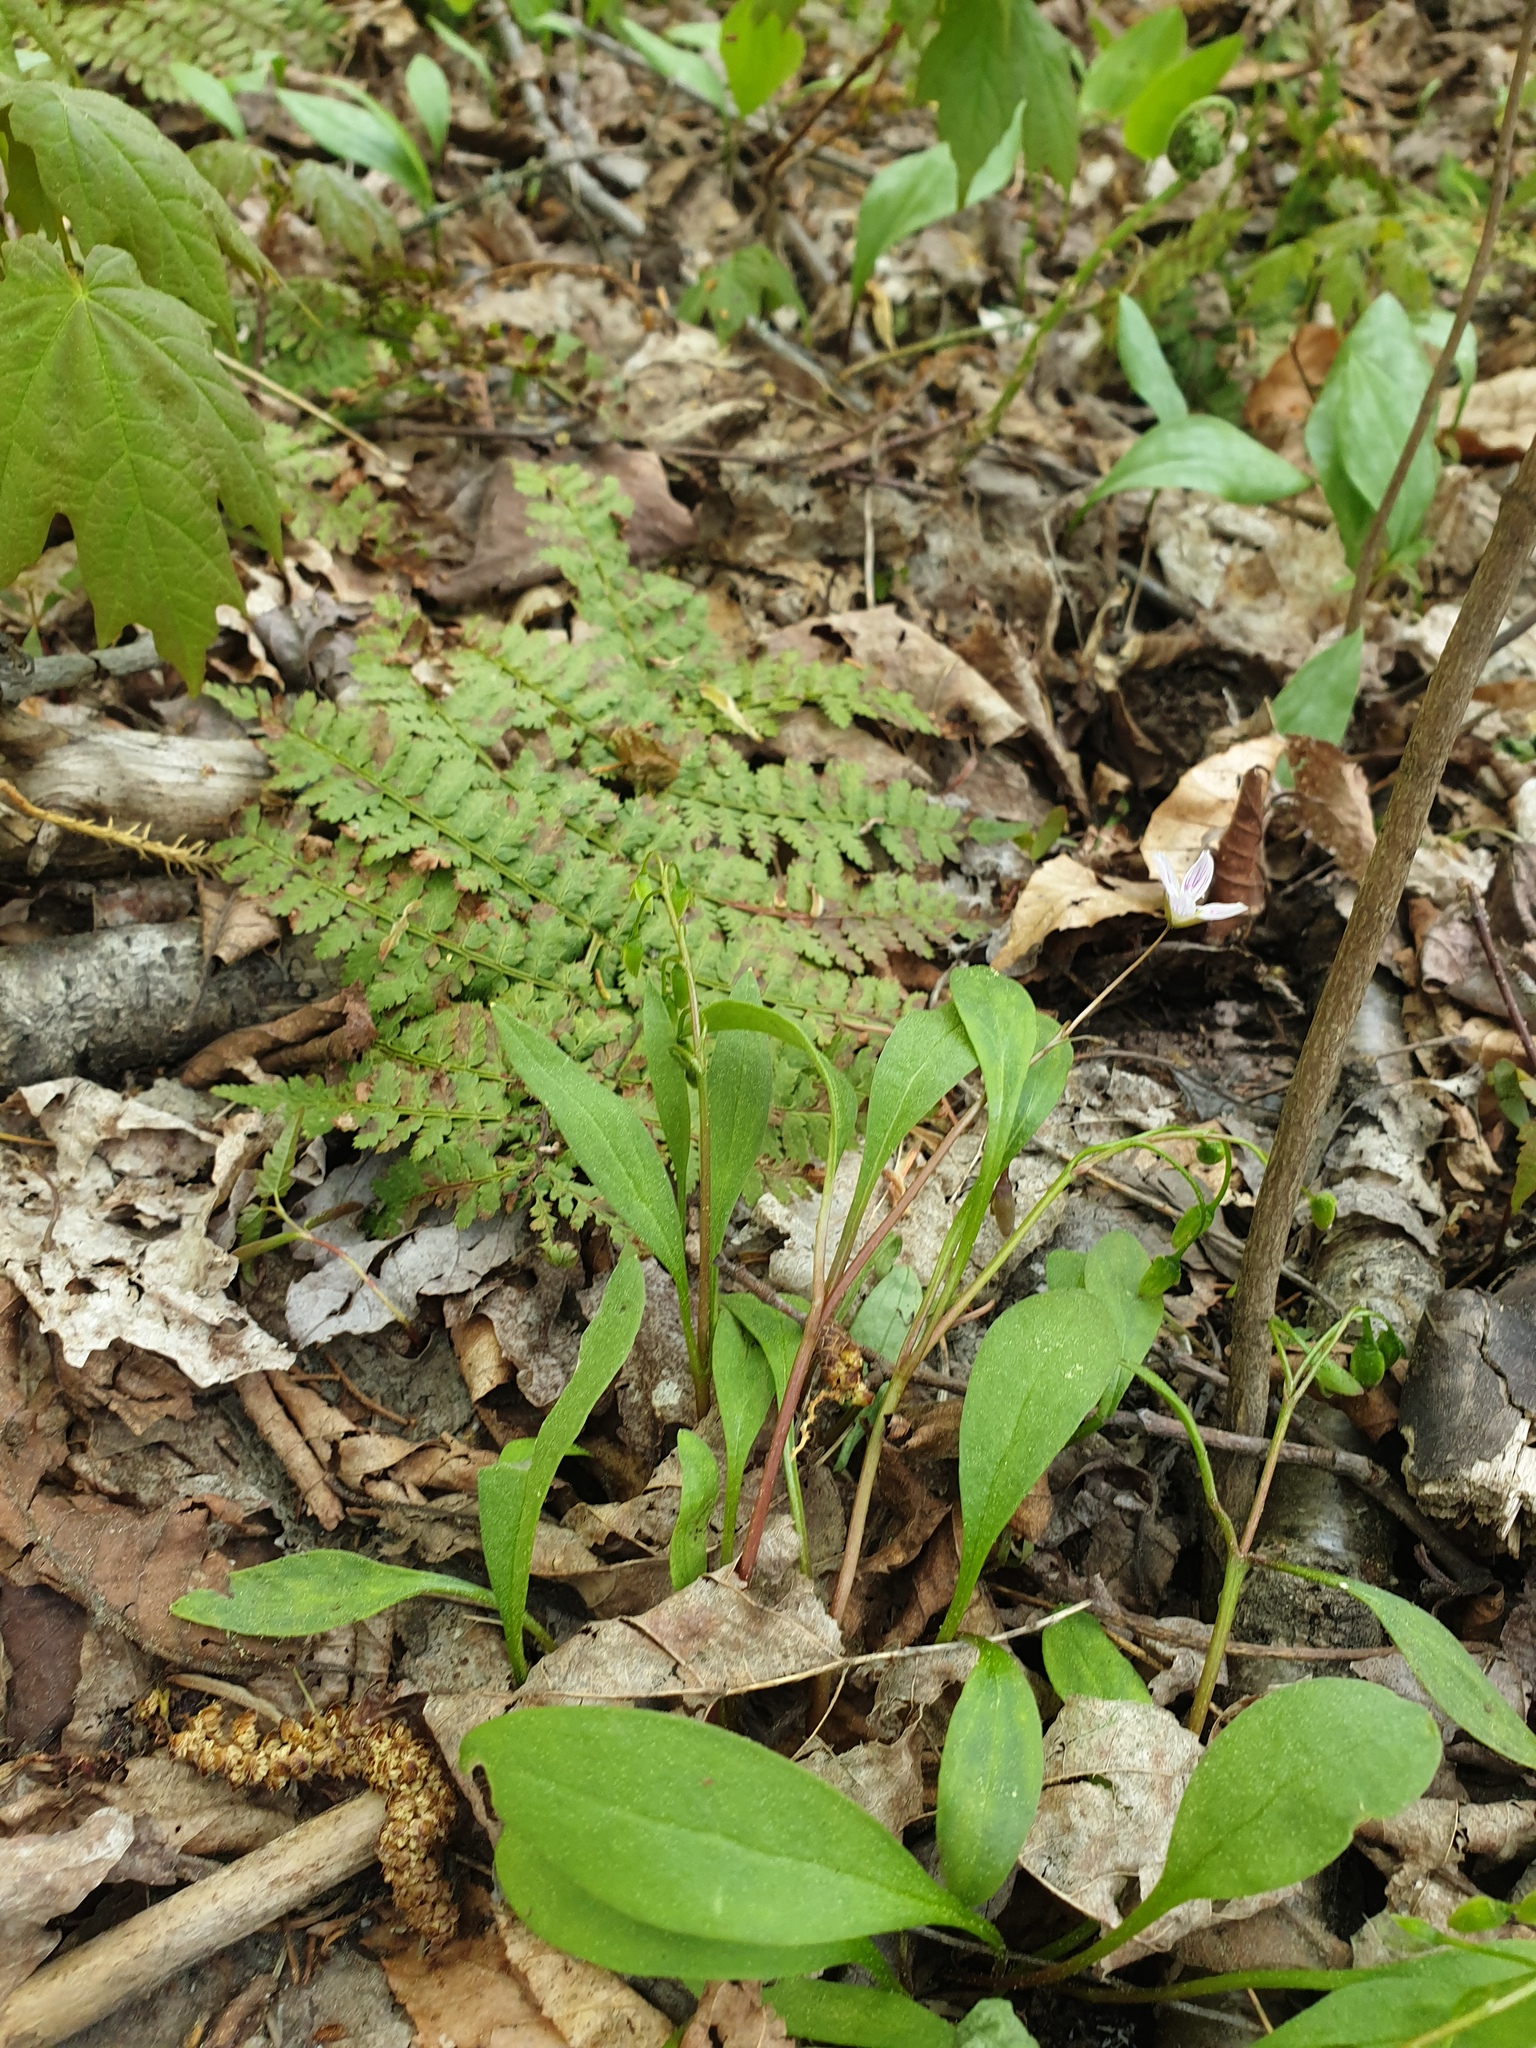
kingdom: Plantae
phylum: Tracheophyta
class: Magnoliopsida
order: Caryophyllales
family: Montiaceae
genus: Claytonia
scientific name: Claytonia caroliniana
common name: Carolina spring beauty
